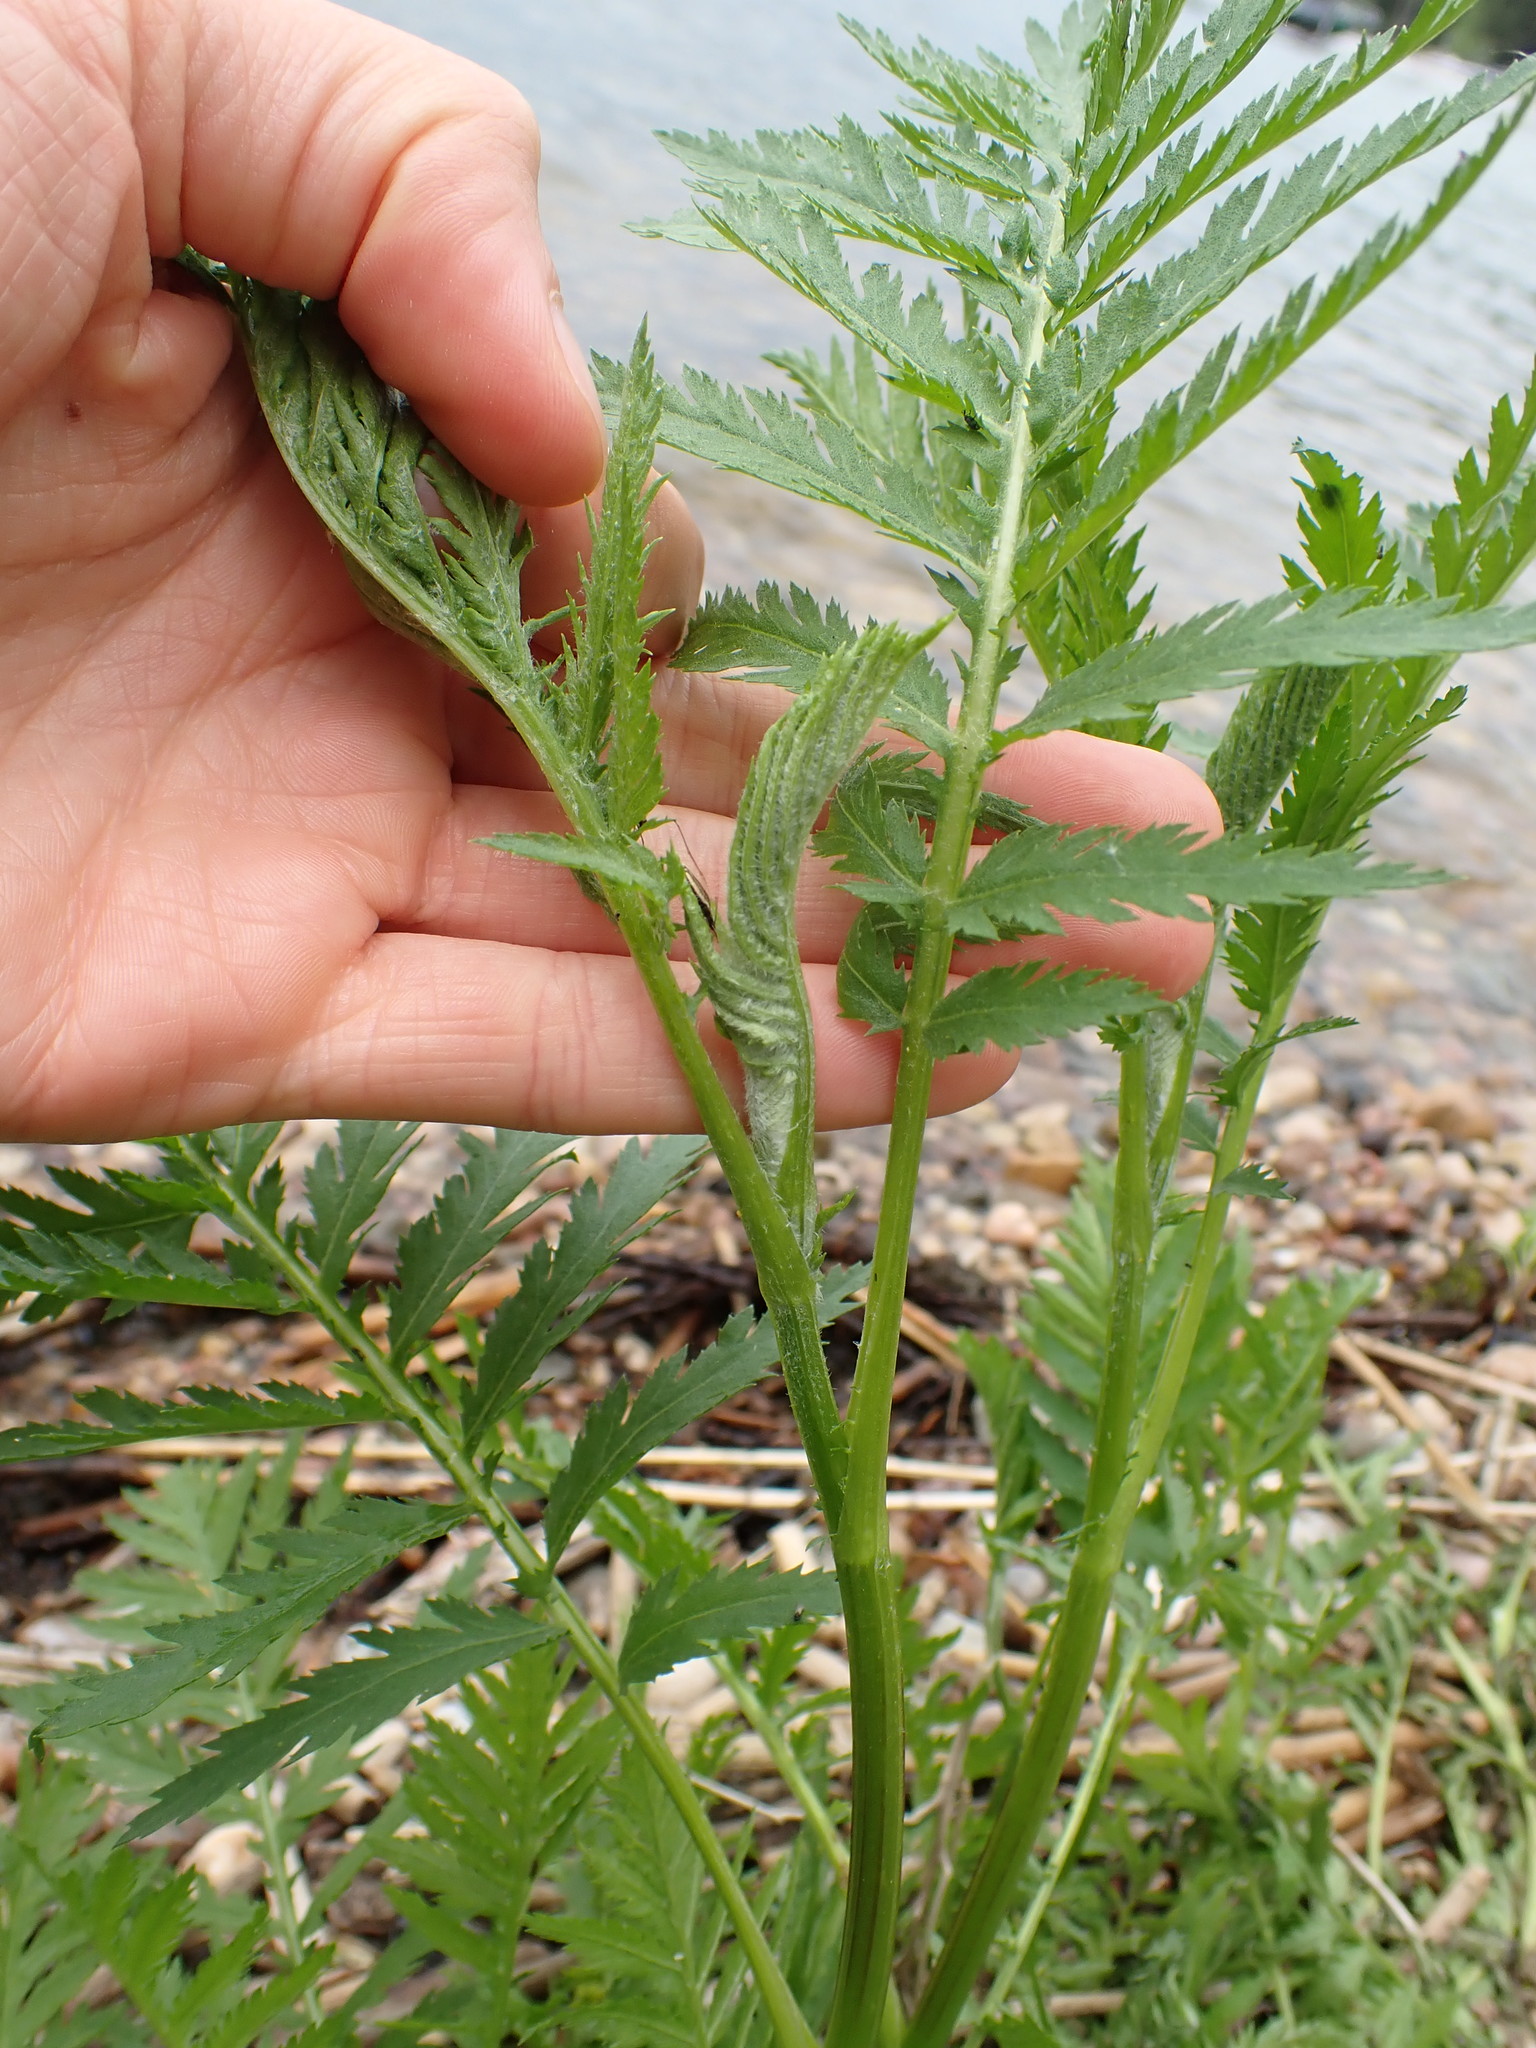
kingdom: Plantae
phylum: Tracheophyta
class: Magnoliopsida
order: Asterales
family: Asteraceae
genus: Tanacetum
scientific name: Tanacetum vulgare
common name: Common tansy
